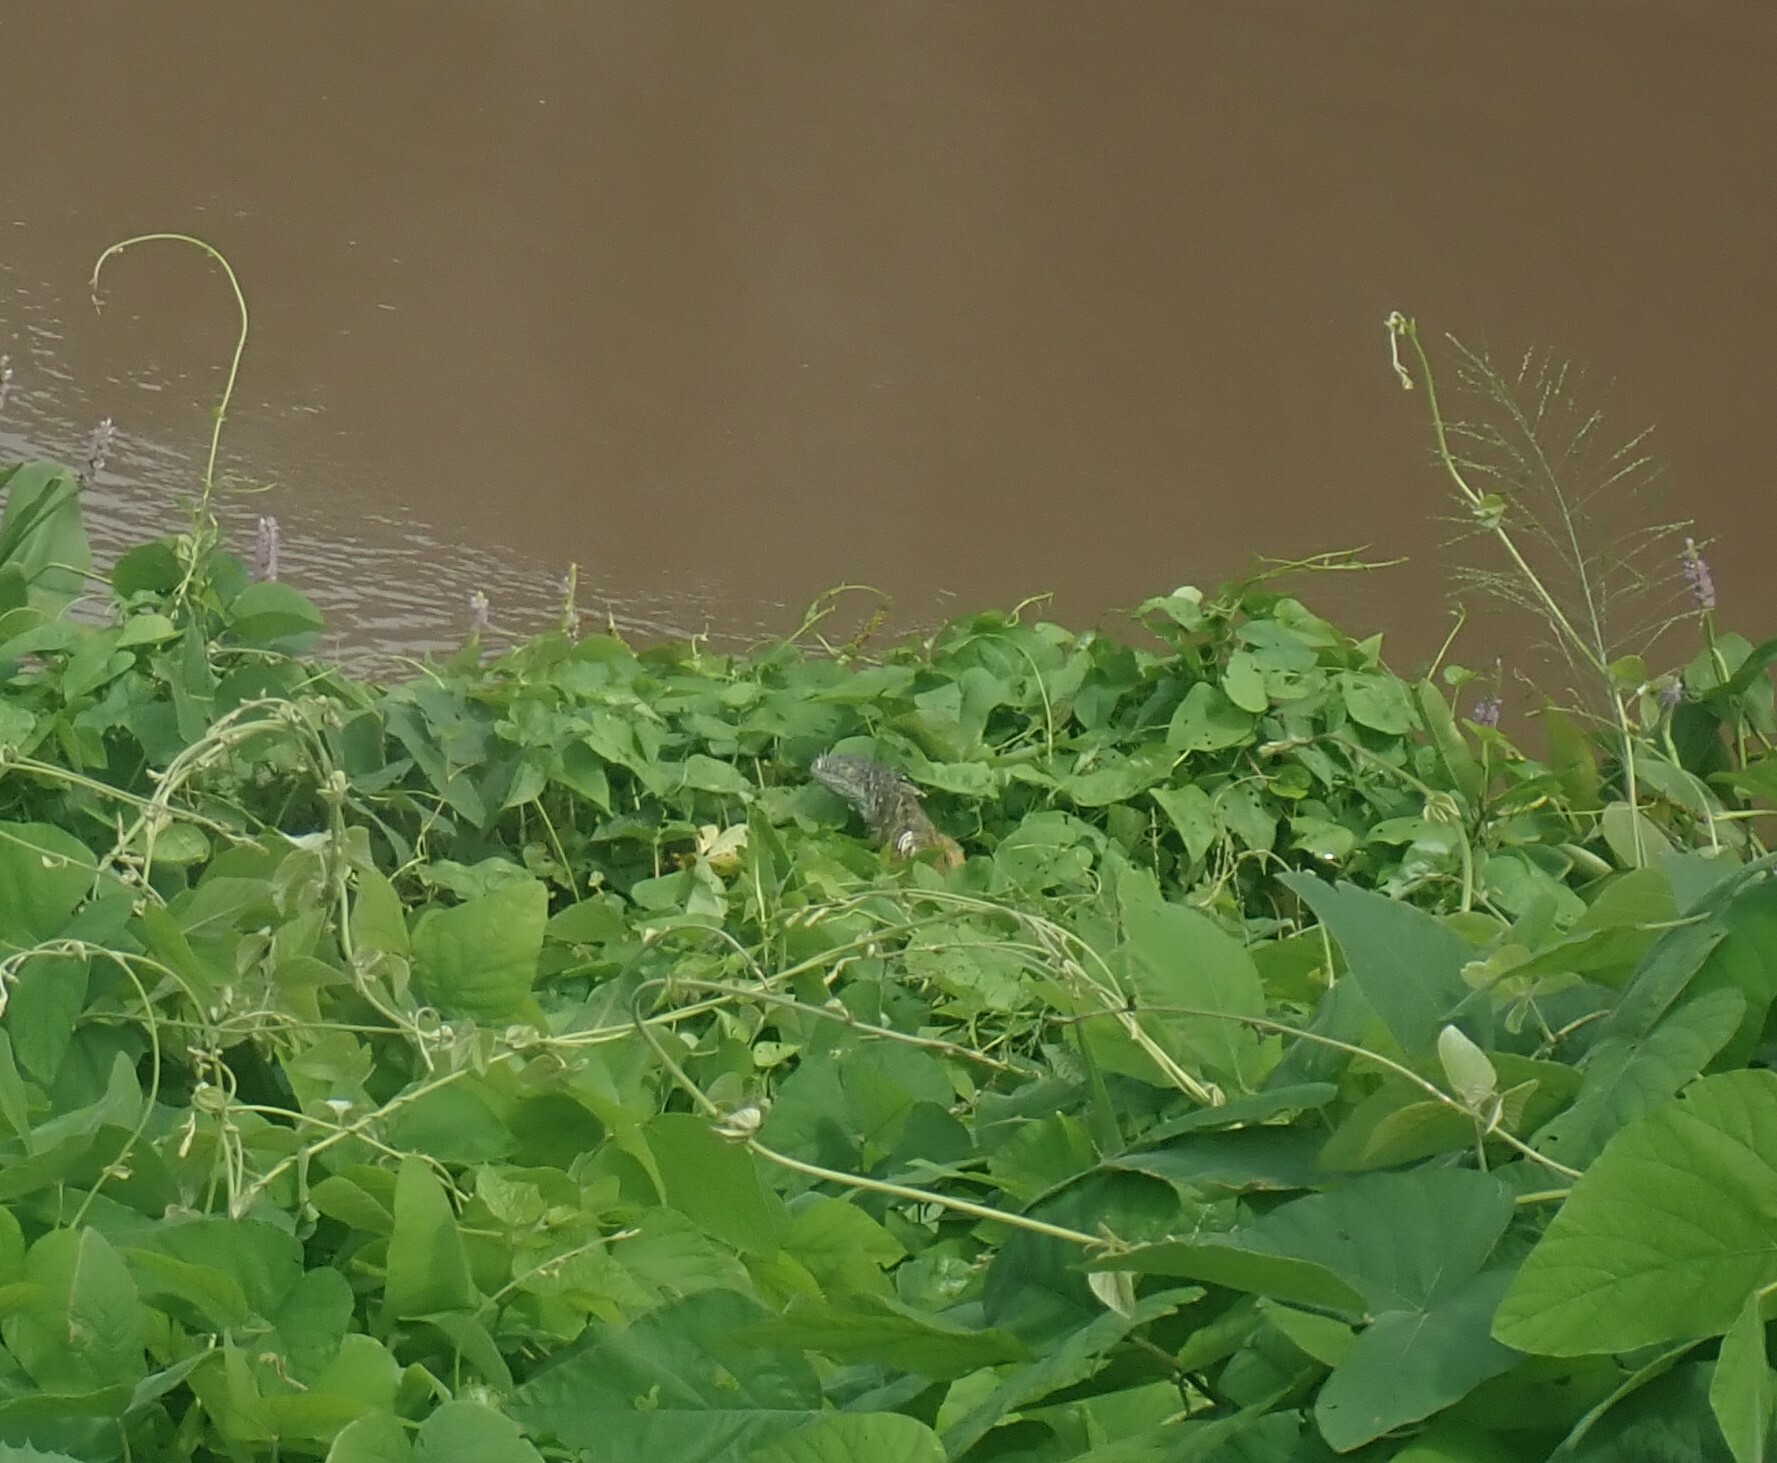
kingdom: Animalia
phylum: Chordata
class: Squamata
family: Iguanidae
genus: Iguana
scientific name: Iguana iguana
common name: Green iguana
